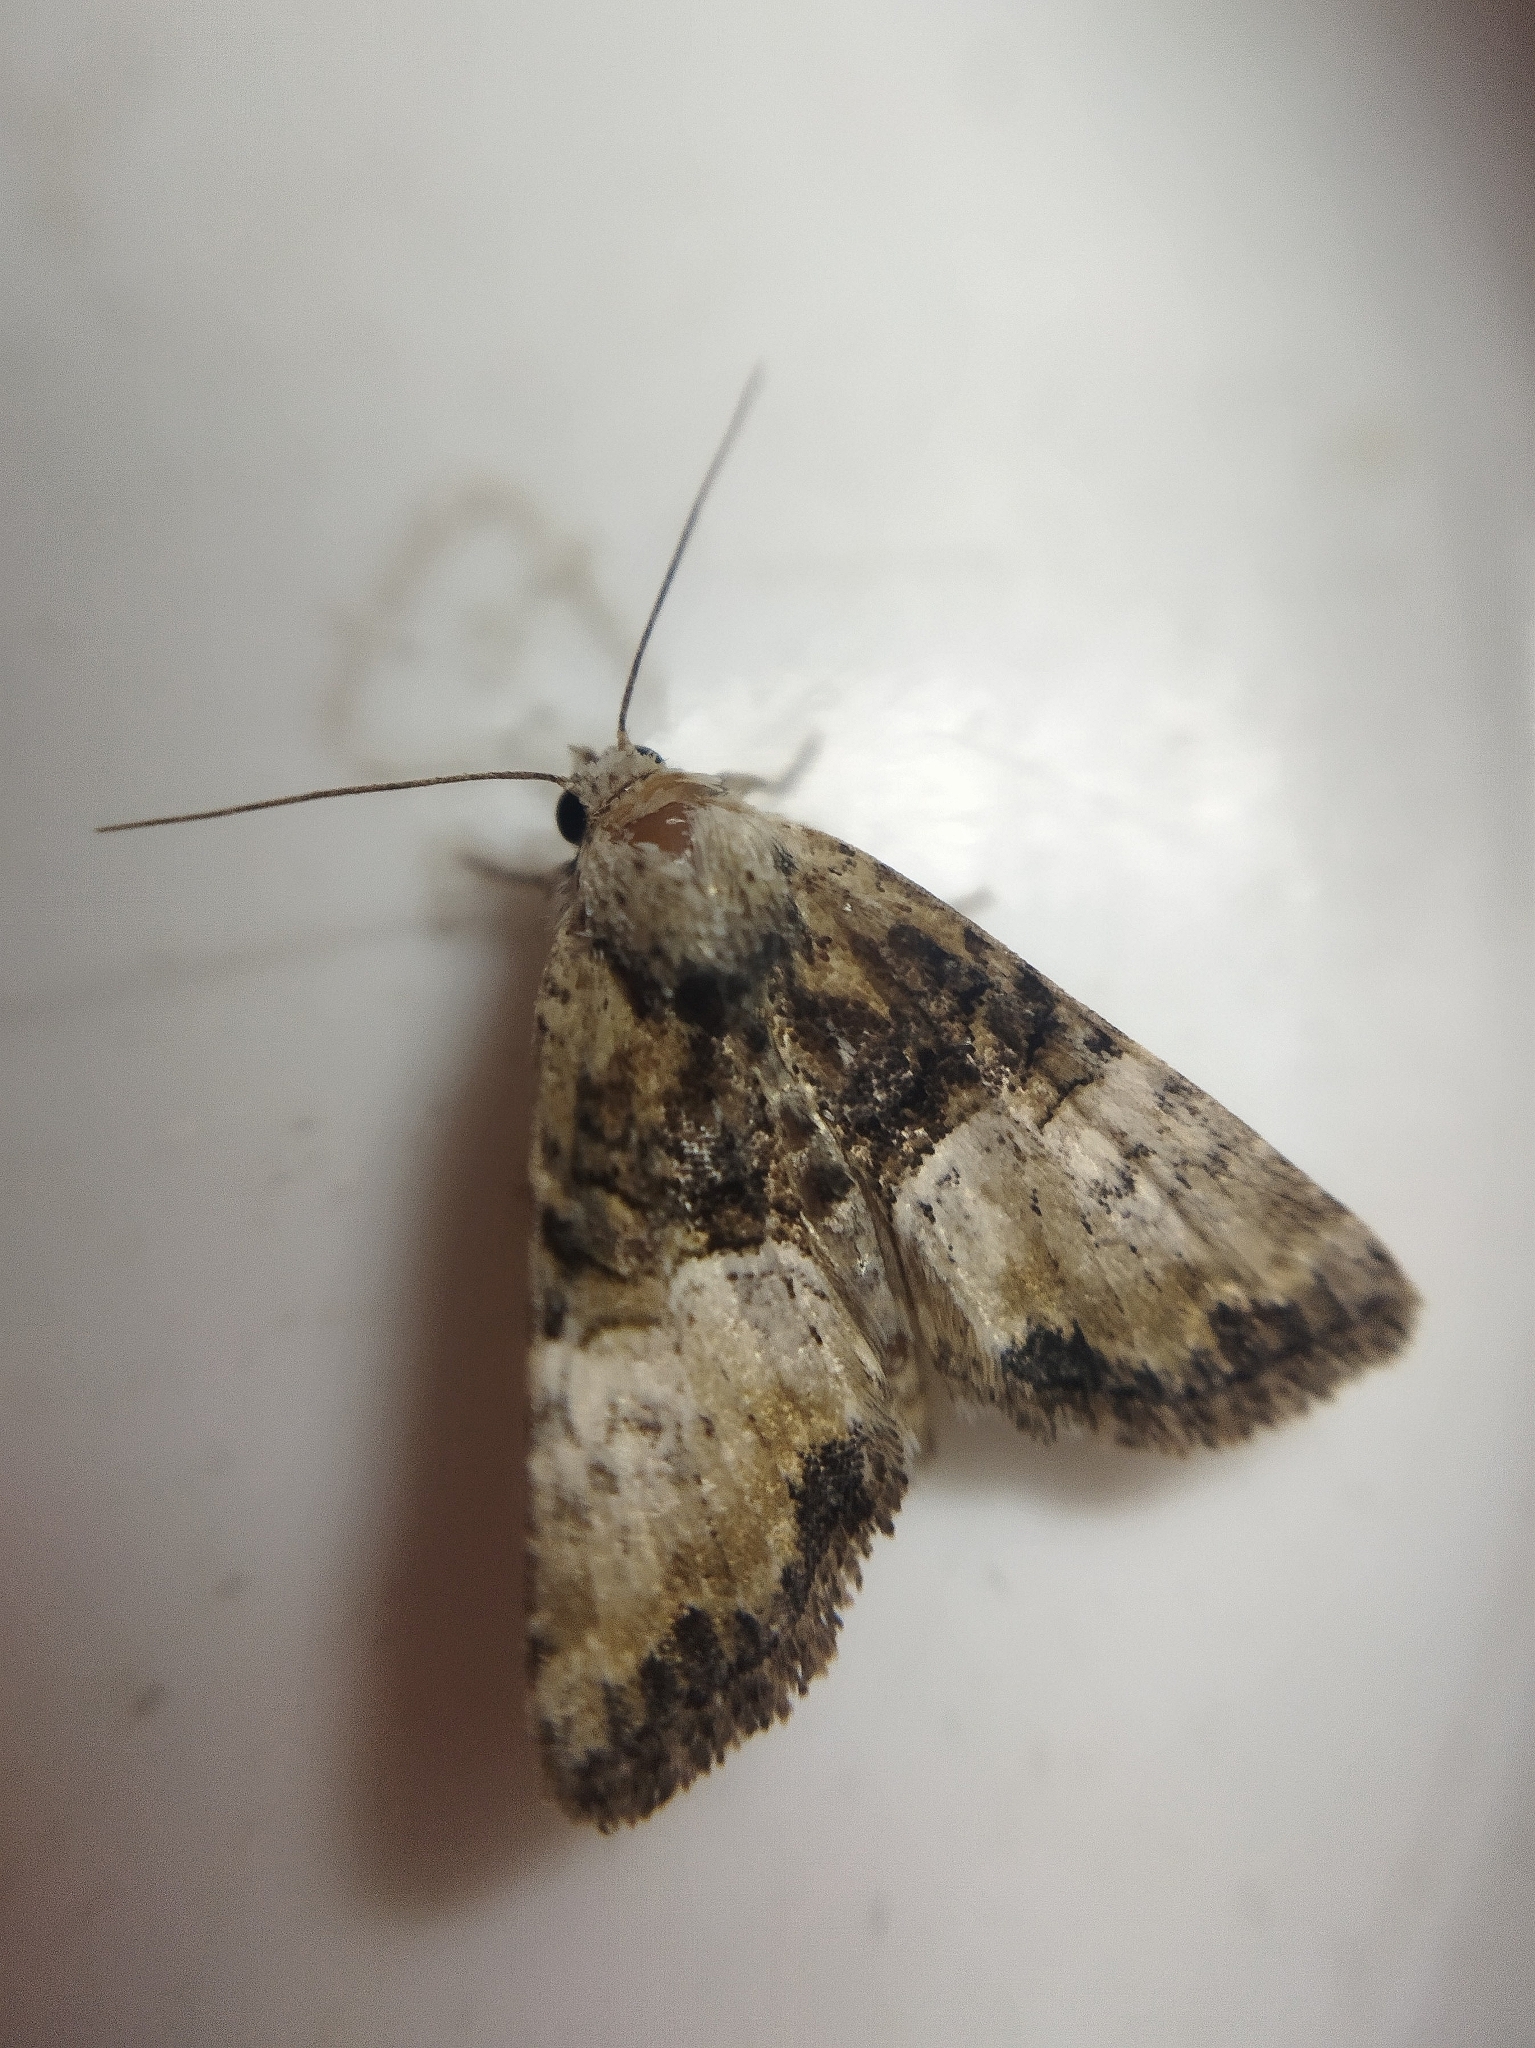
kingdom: Animalia
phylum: Arthropoda
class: Insecta
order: Lepidoptera
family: Noctuidae
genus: Mesoligia
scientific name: Mesoligia furuncula
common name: Cloaked minor
